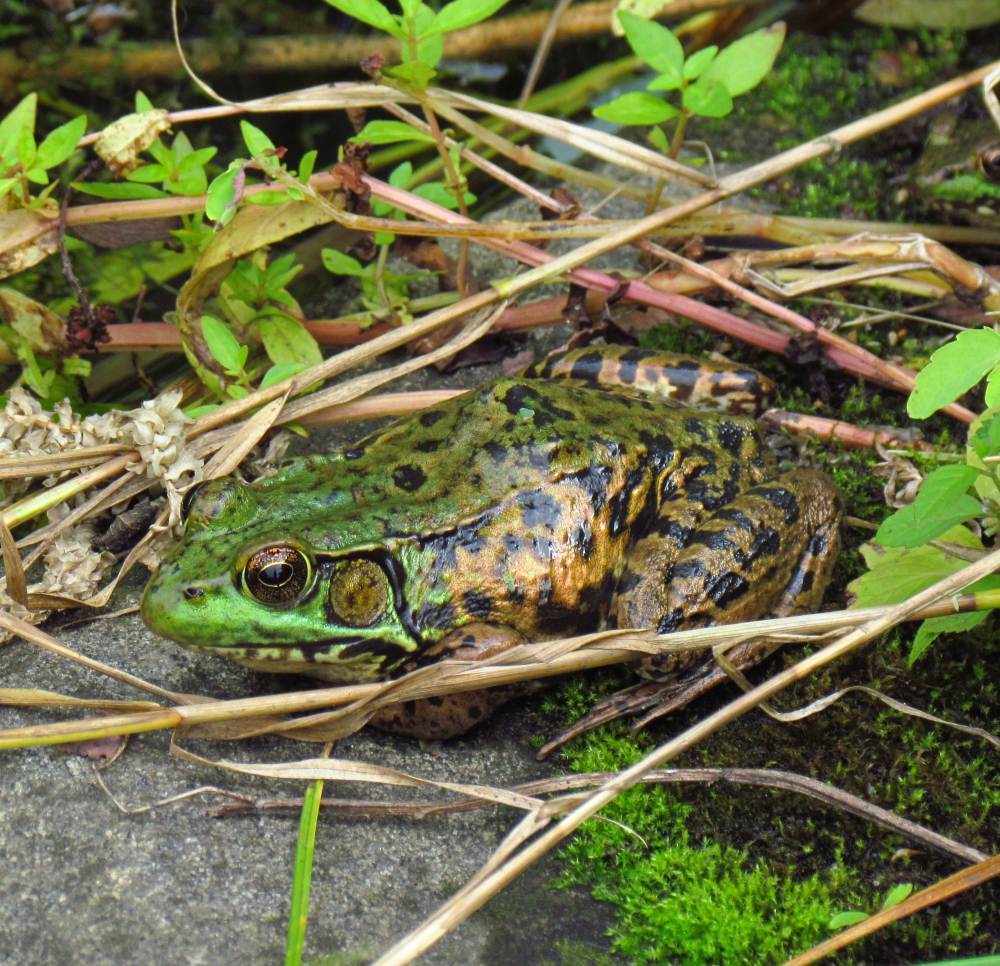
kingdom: Animalia
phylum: Chordata
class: Amphibia
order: Anura
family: Ranidae
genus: Lithobates
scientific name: Lithobates clamitans
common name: Green frog
